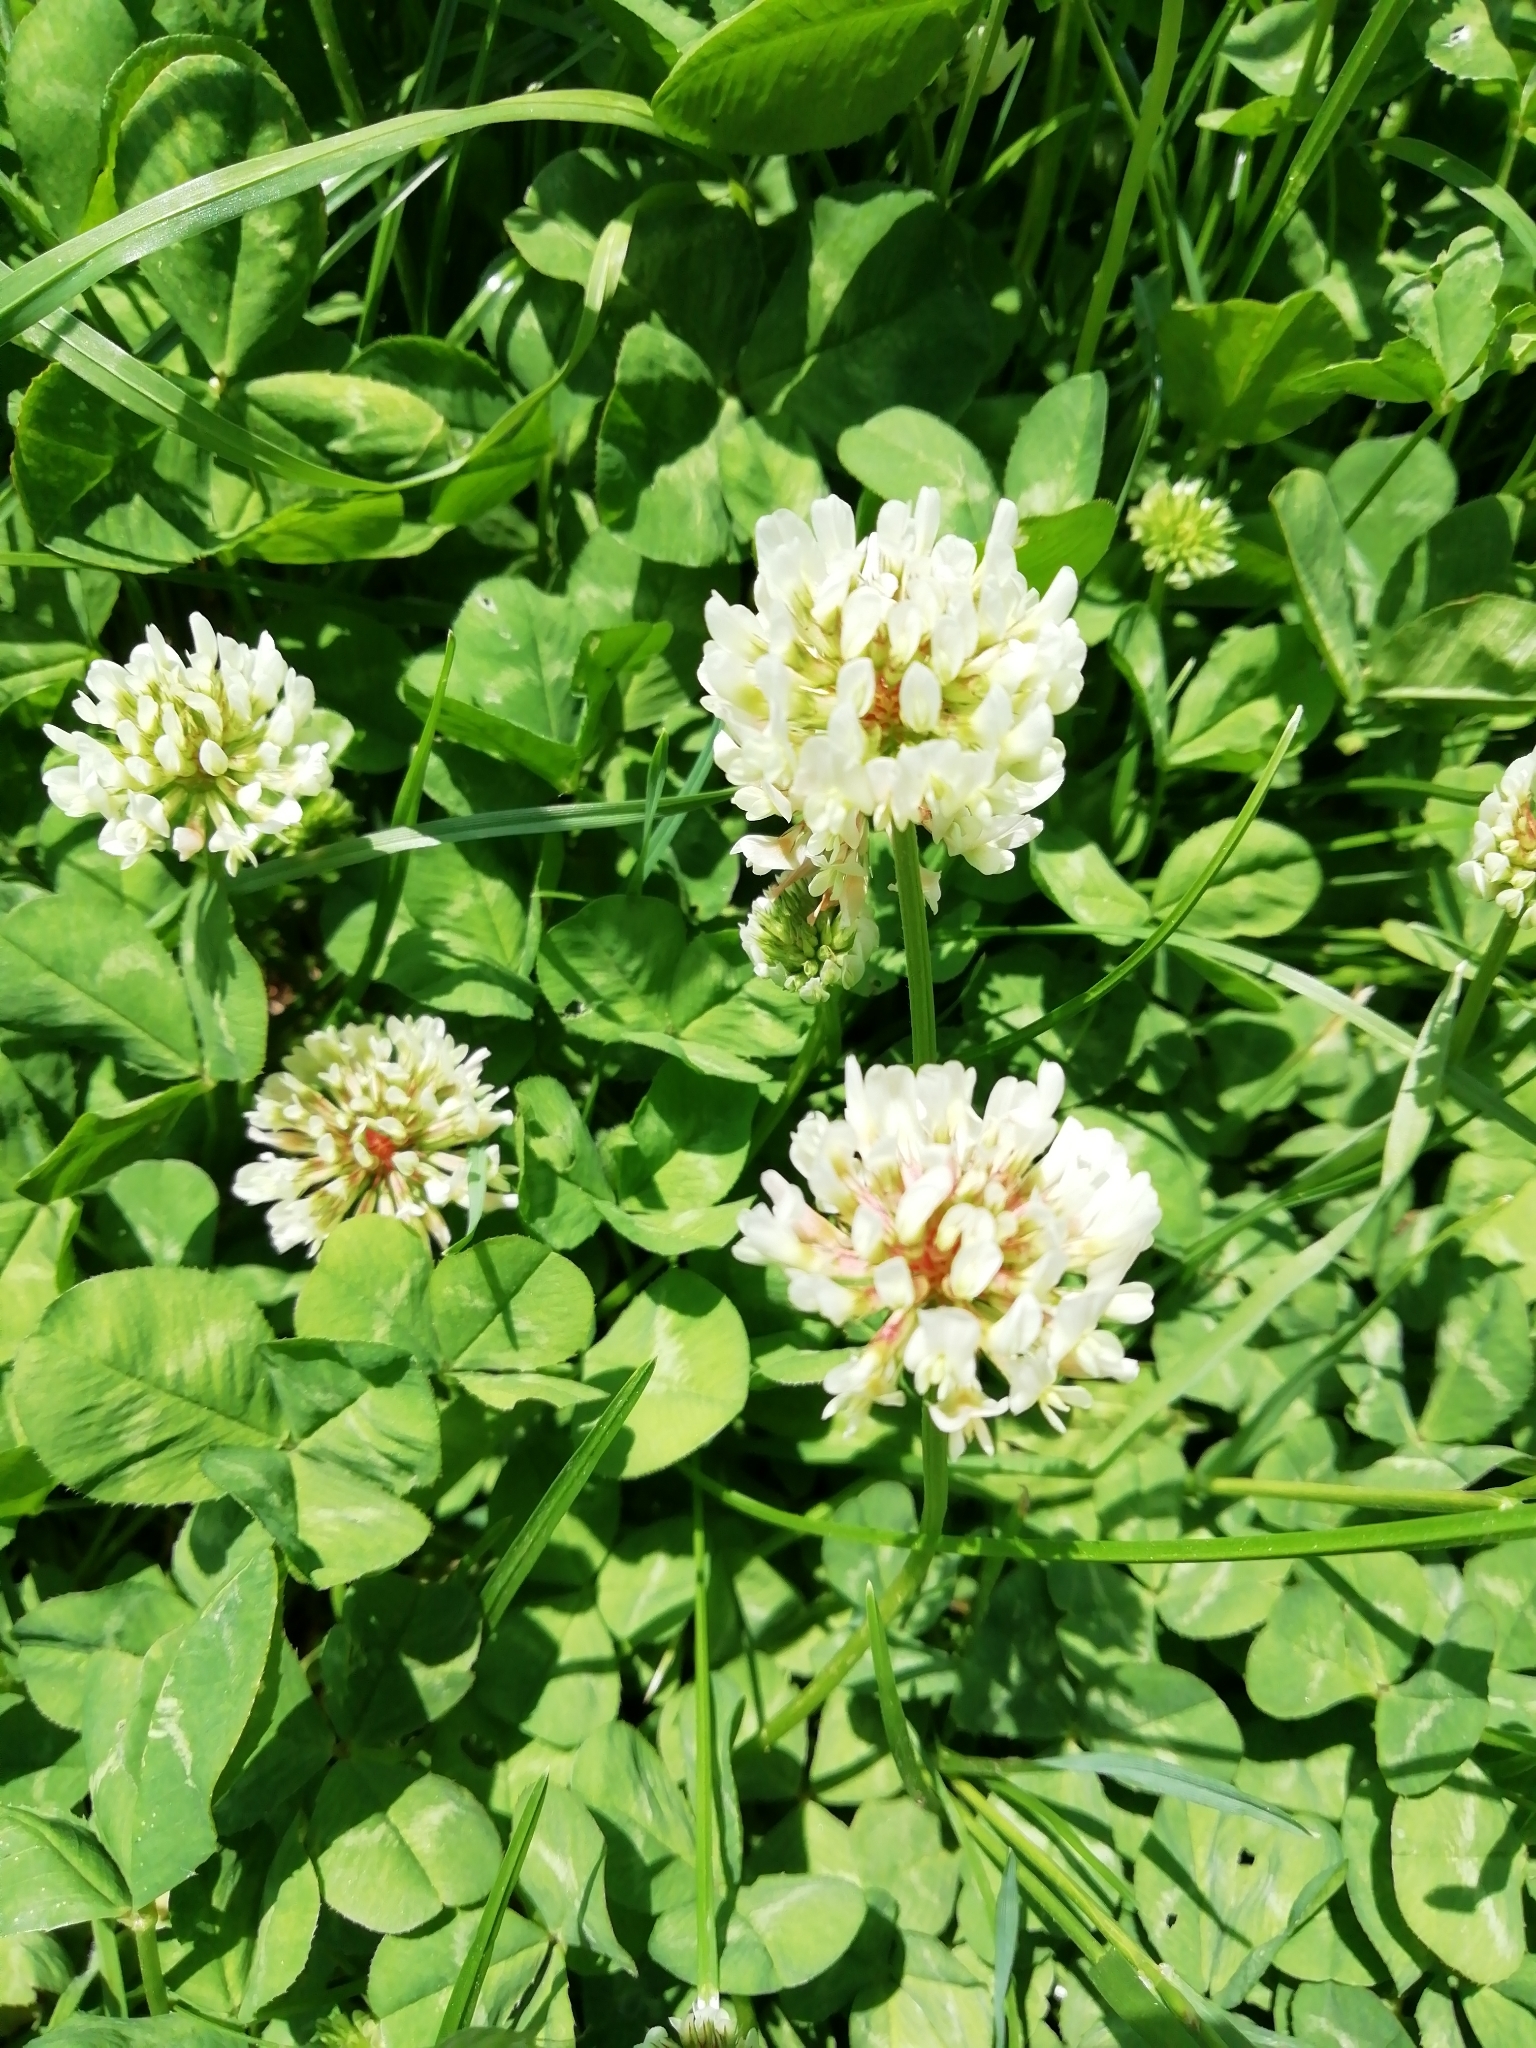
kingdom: Plantae
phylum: Tracheophyta
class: Magnoliopsida
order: Fabales
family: Fabaceae
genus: Trifolium
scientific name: Trifolium repens
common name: White clover
